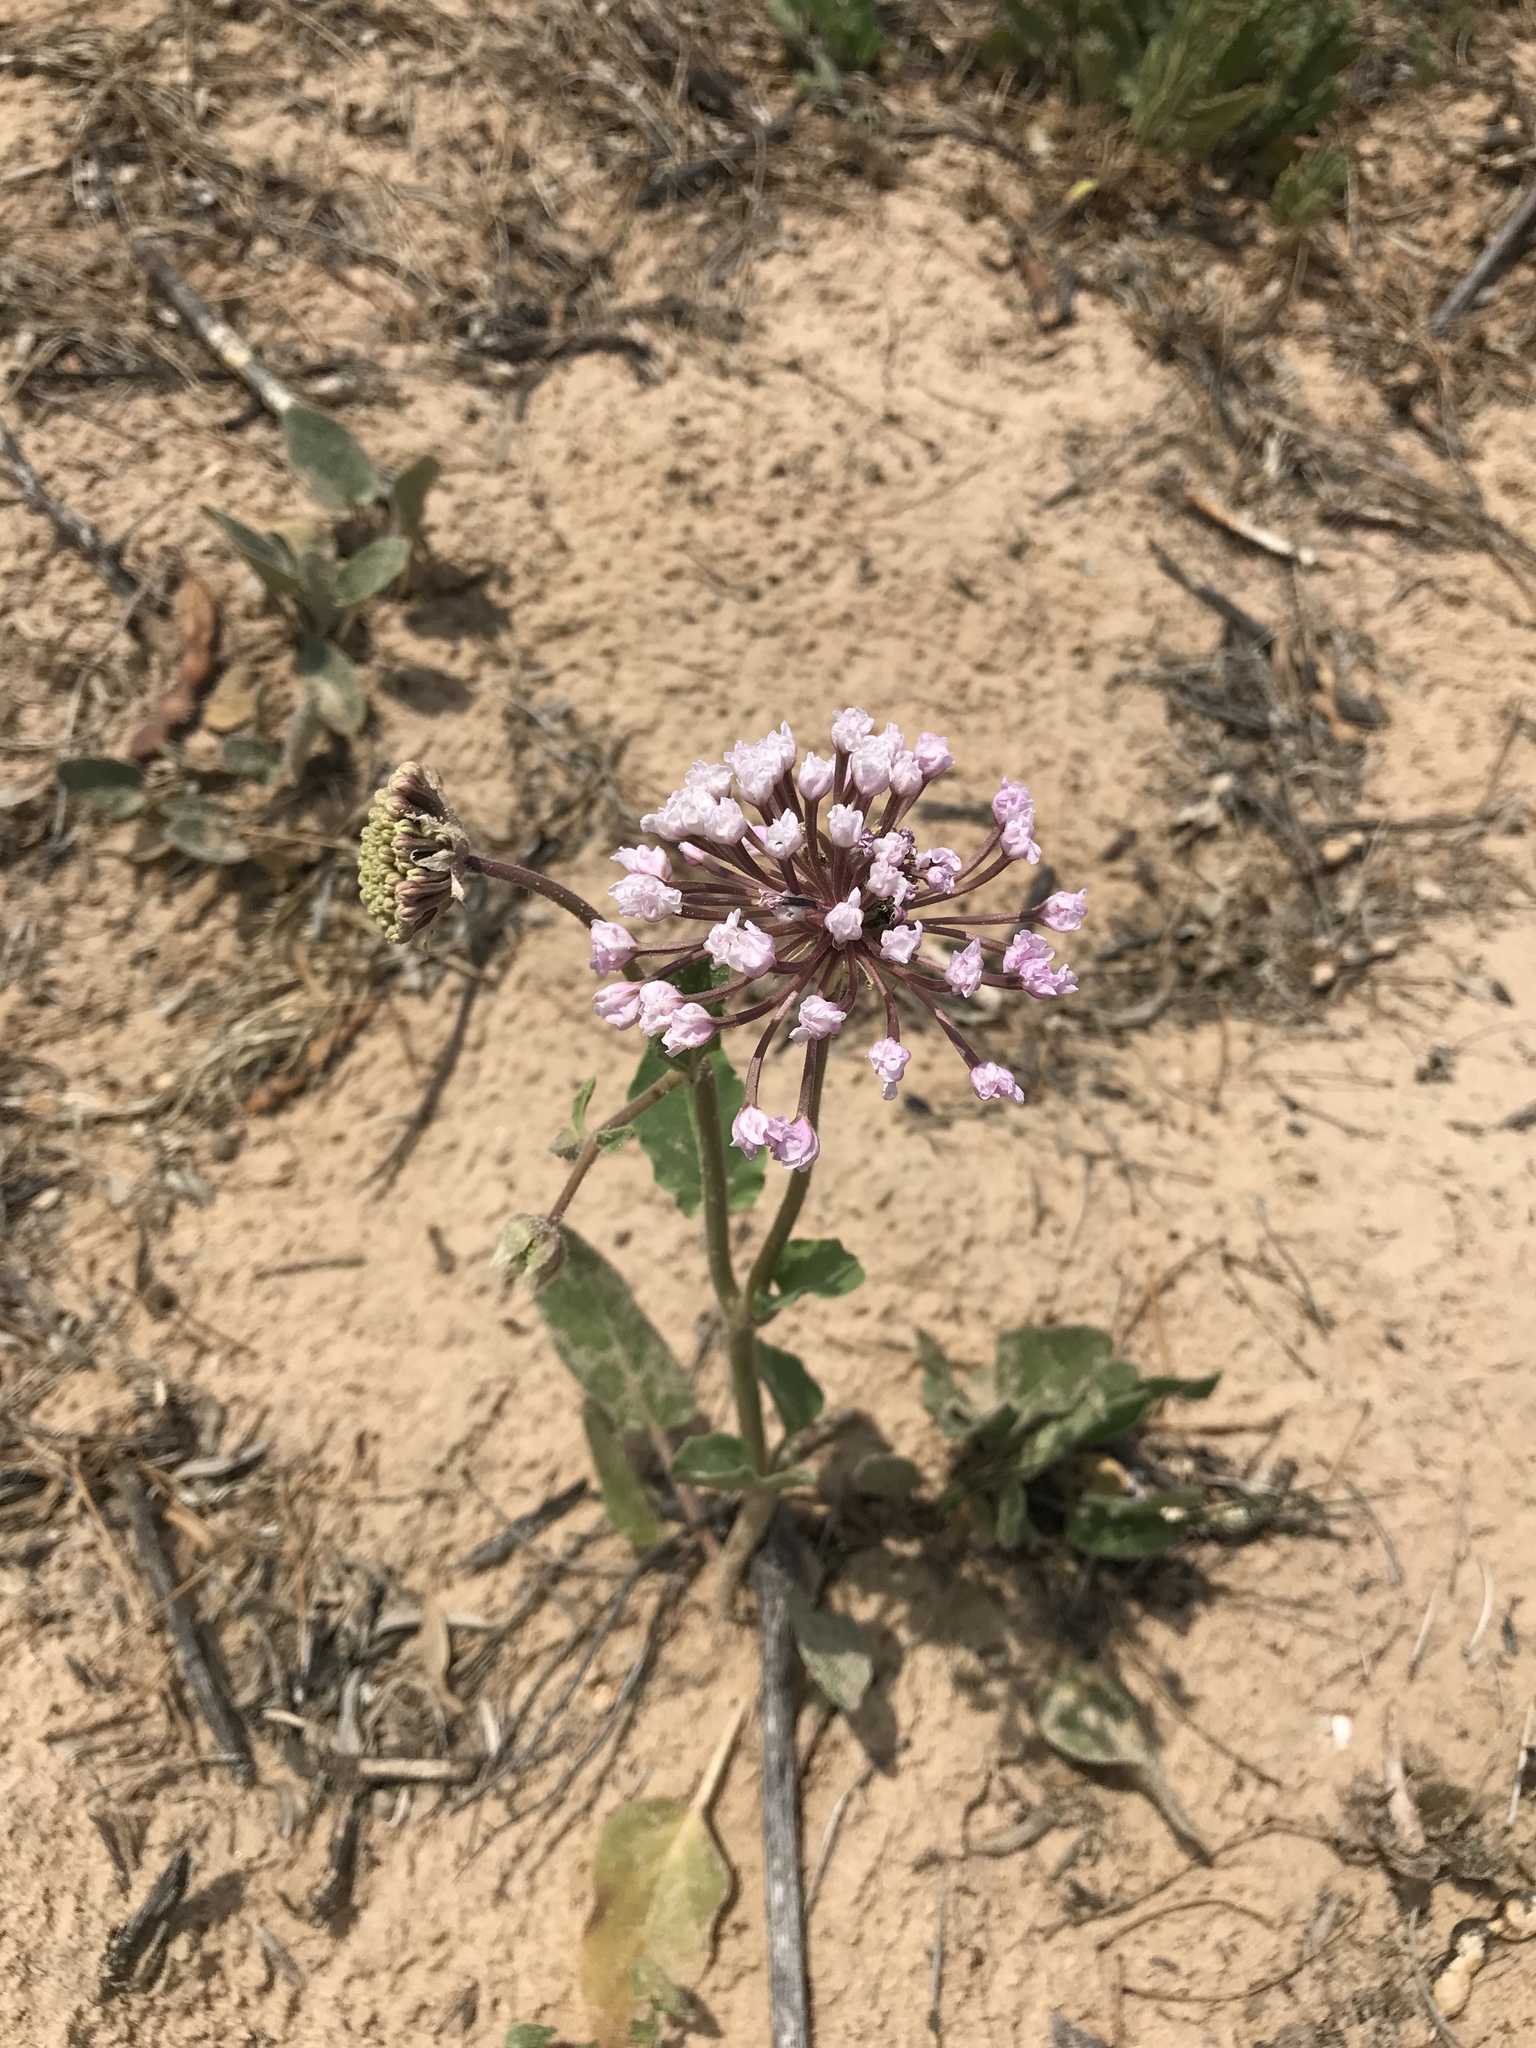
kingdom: Plantae
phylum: Tracheophyta
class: Magnoliopsida
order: Caryophyllales
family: Nyctaginaceae
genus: Abronia
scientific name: Abronia fragrans
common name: Fragrant sand-verbena
